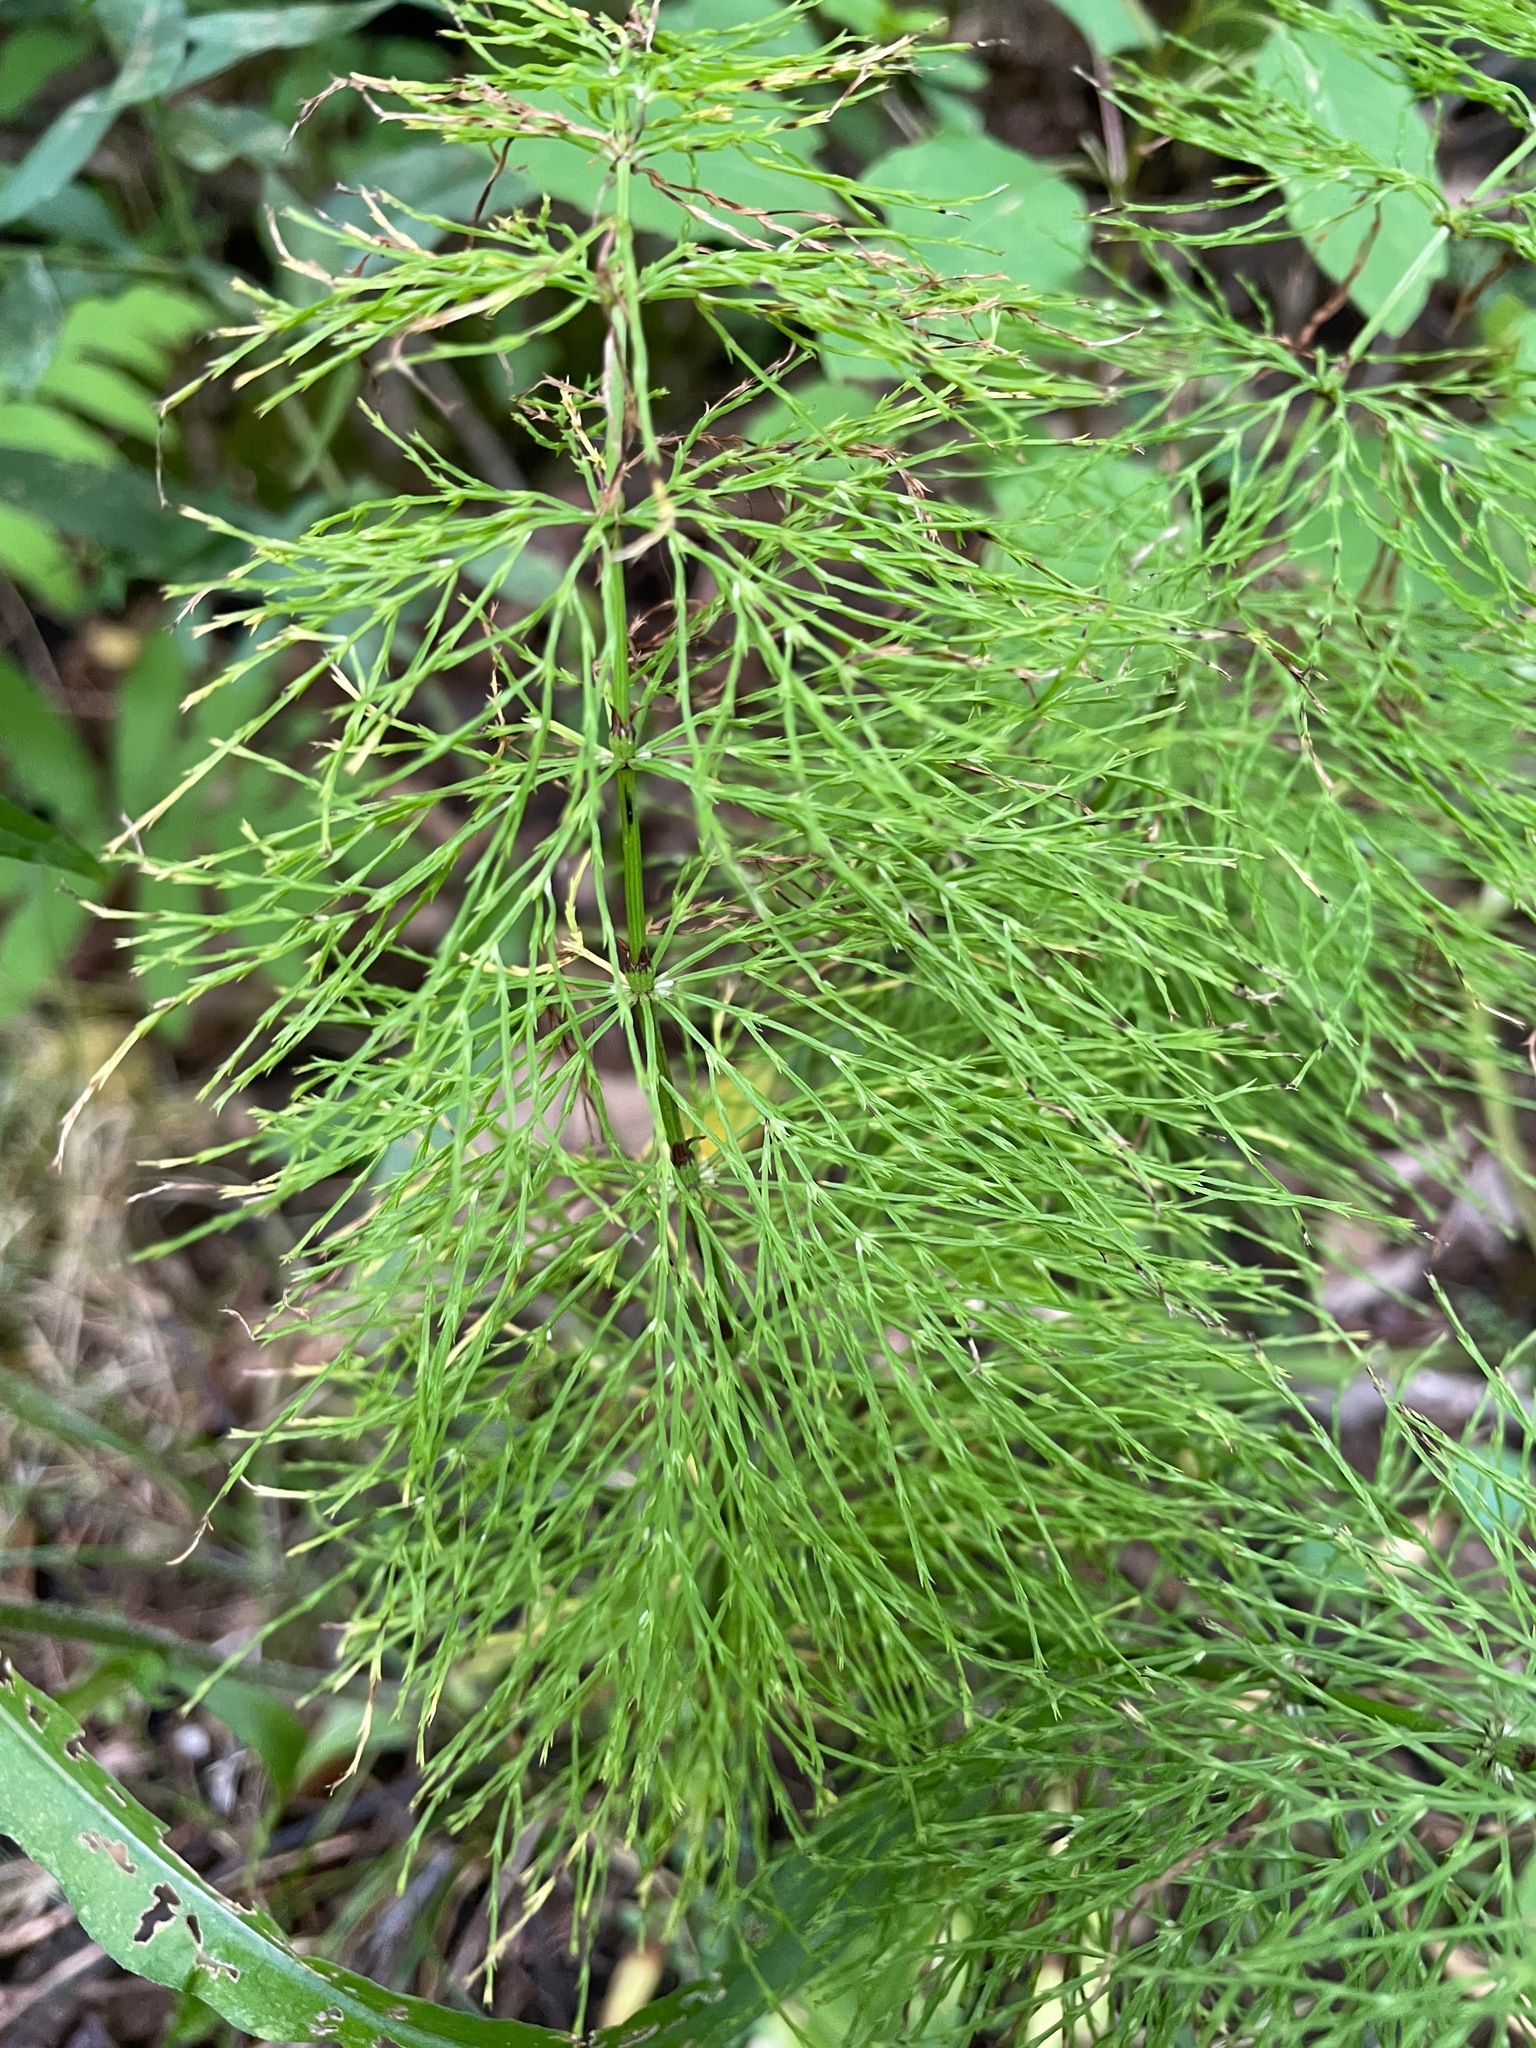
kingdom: Plantae
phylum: Tracheophyta
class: Polypodiopsida
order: Equisetales
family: Equisetaceae
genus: Equisetum
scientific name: Equisetum sylvaticum
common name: Wood horsetail
